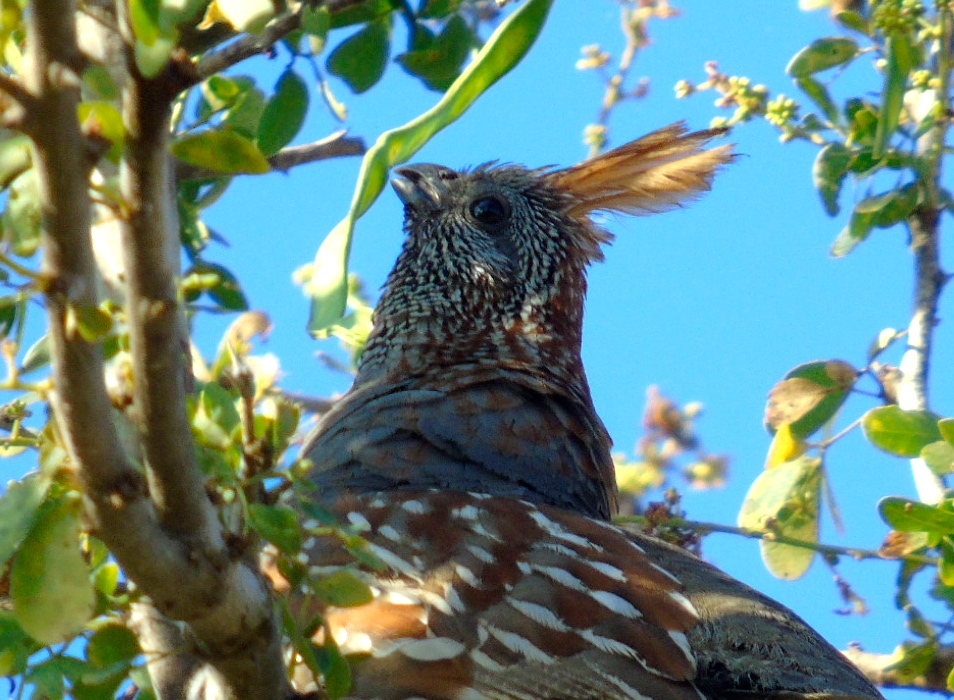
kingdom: Animalia
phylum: Chordata
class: Aves
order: Galliformes
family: Odontophoridae
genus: Callipepla
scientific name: Callipepla douglasii
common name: Elegant quail
